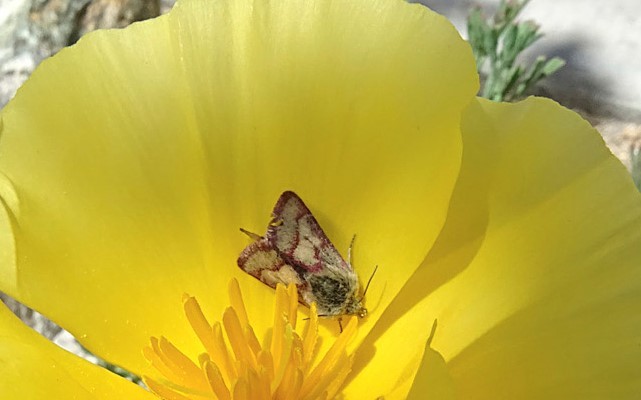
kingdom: Animalia
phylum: Arthropoda
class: Insecta
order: Lepidoptera
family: Noctuidae
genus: Heliolonche
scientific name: Heliolonche pictipennis
